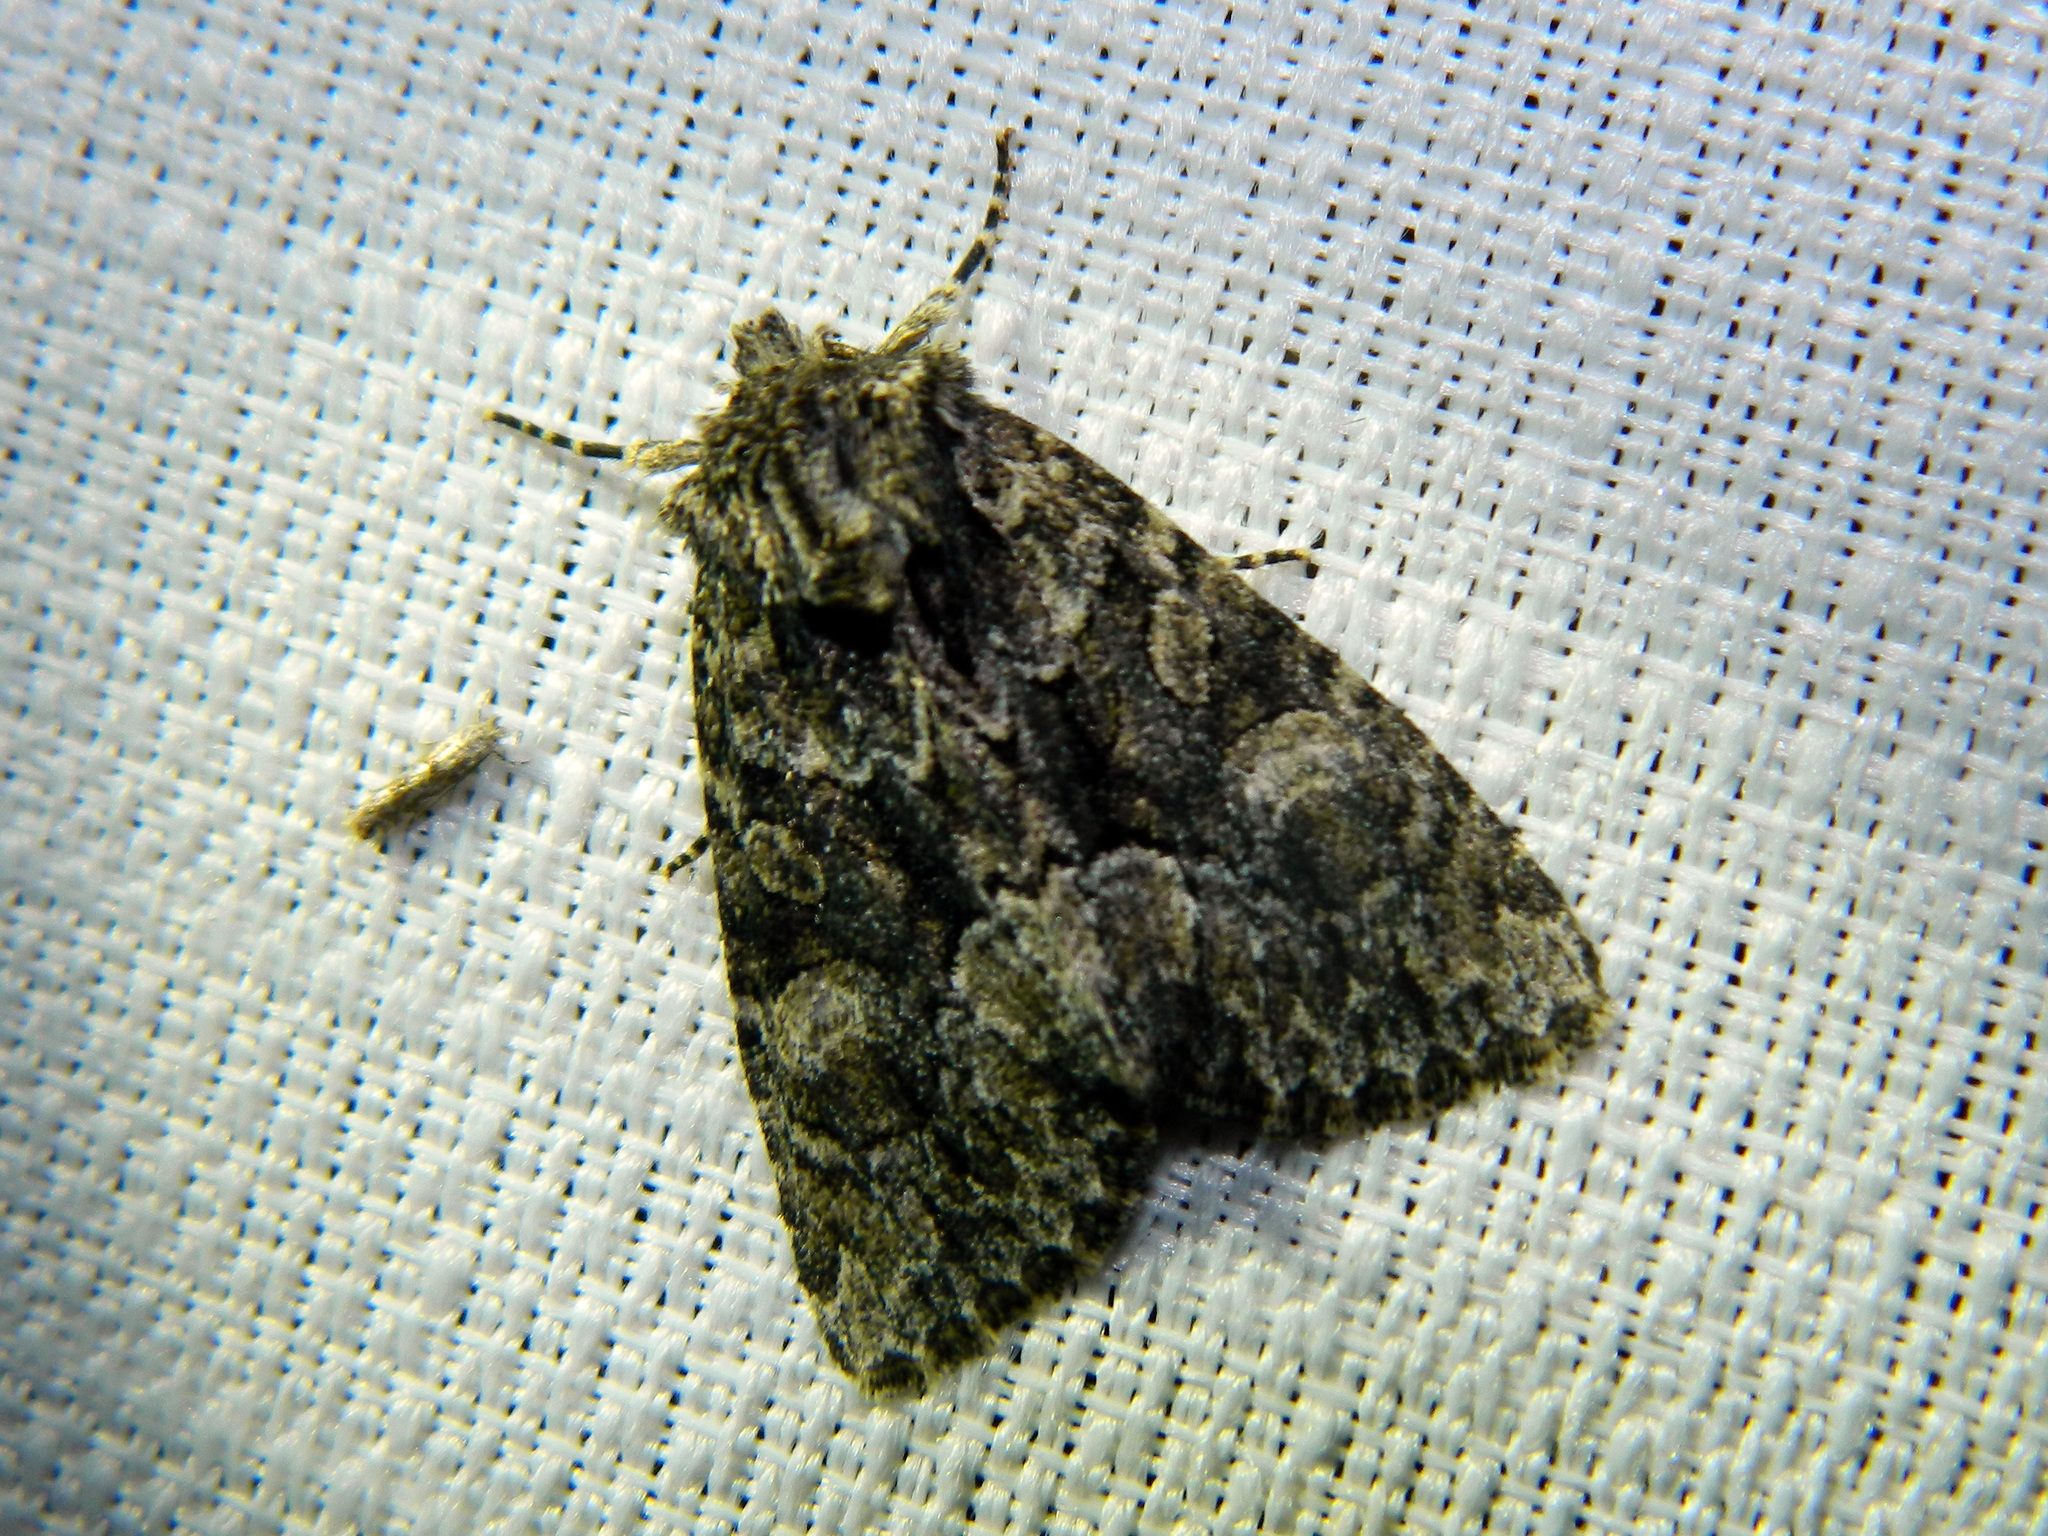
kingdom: Animalia
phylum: Arthropoda
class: Insecta
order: Lepidoptera
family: Noctuidae
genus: Platypolia
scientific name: Platypolia mactata
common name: Adorable brocade moth
